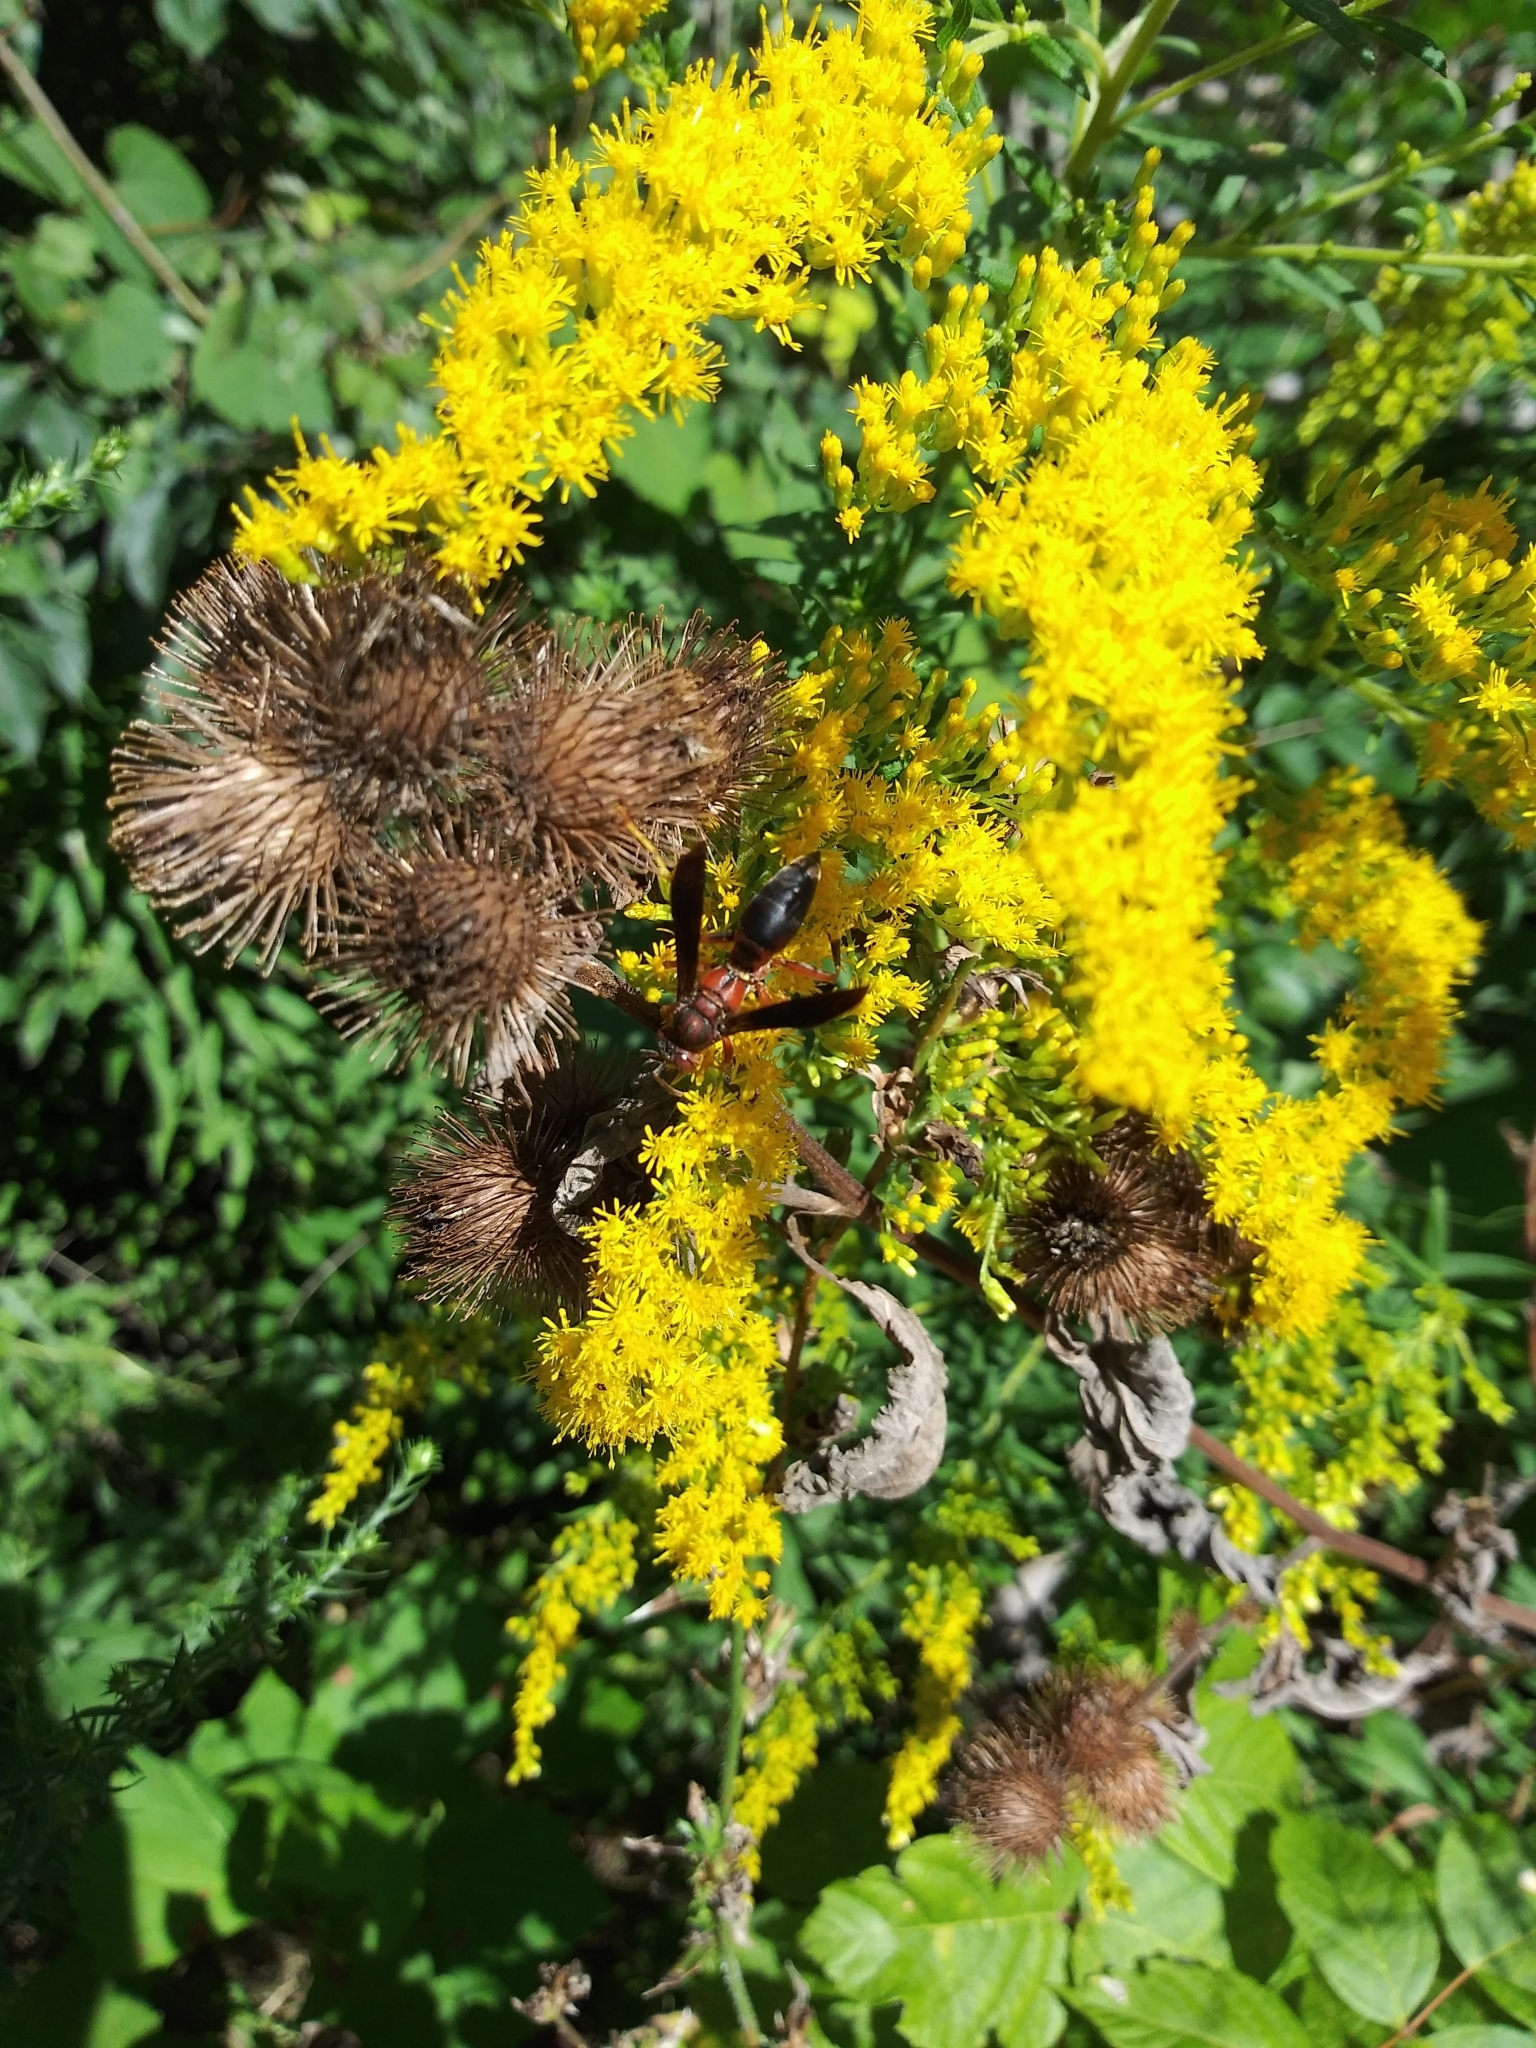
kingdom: Animalia
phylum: Arthropoda
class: Insecta
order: Hymenoptera
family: Eumenidae
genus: Polistes
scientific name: Polistes metricus
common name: Metric paper wasp
